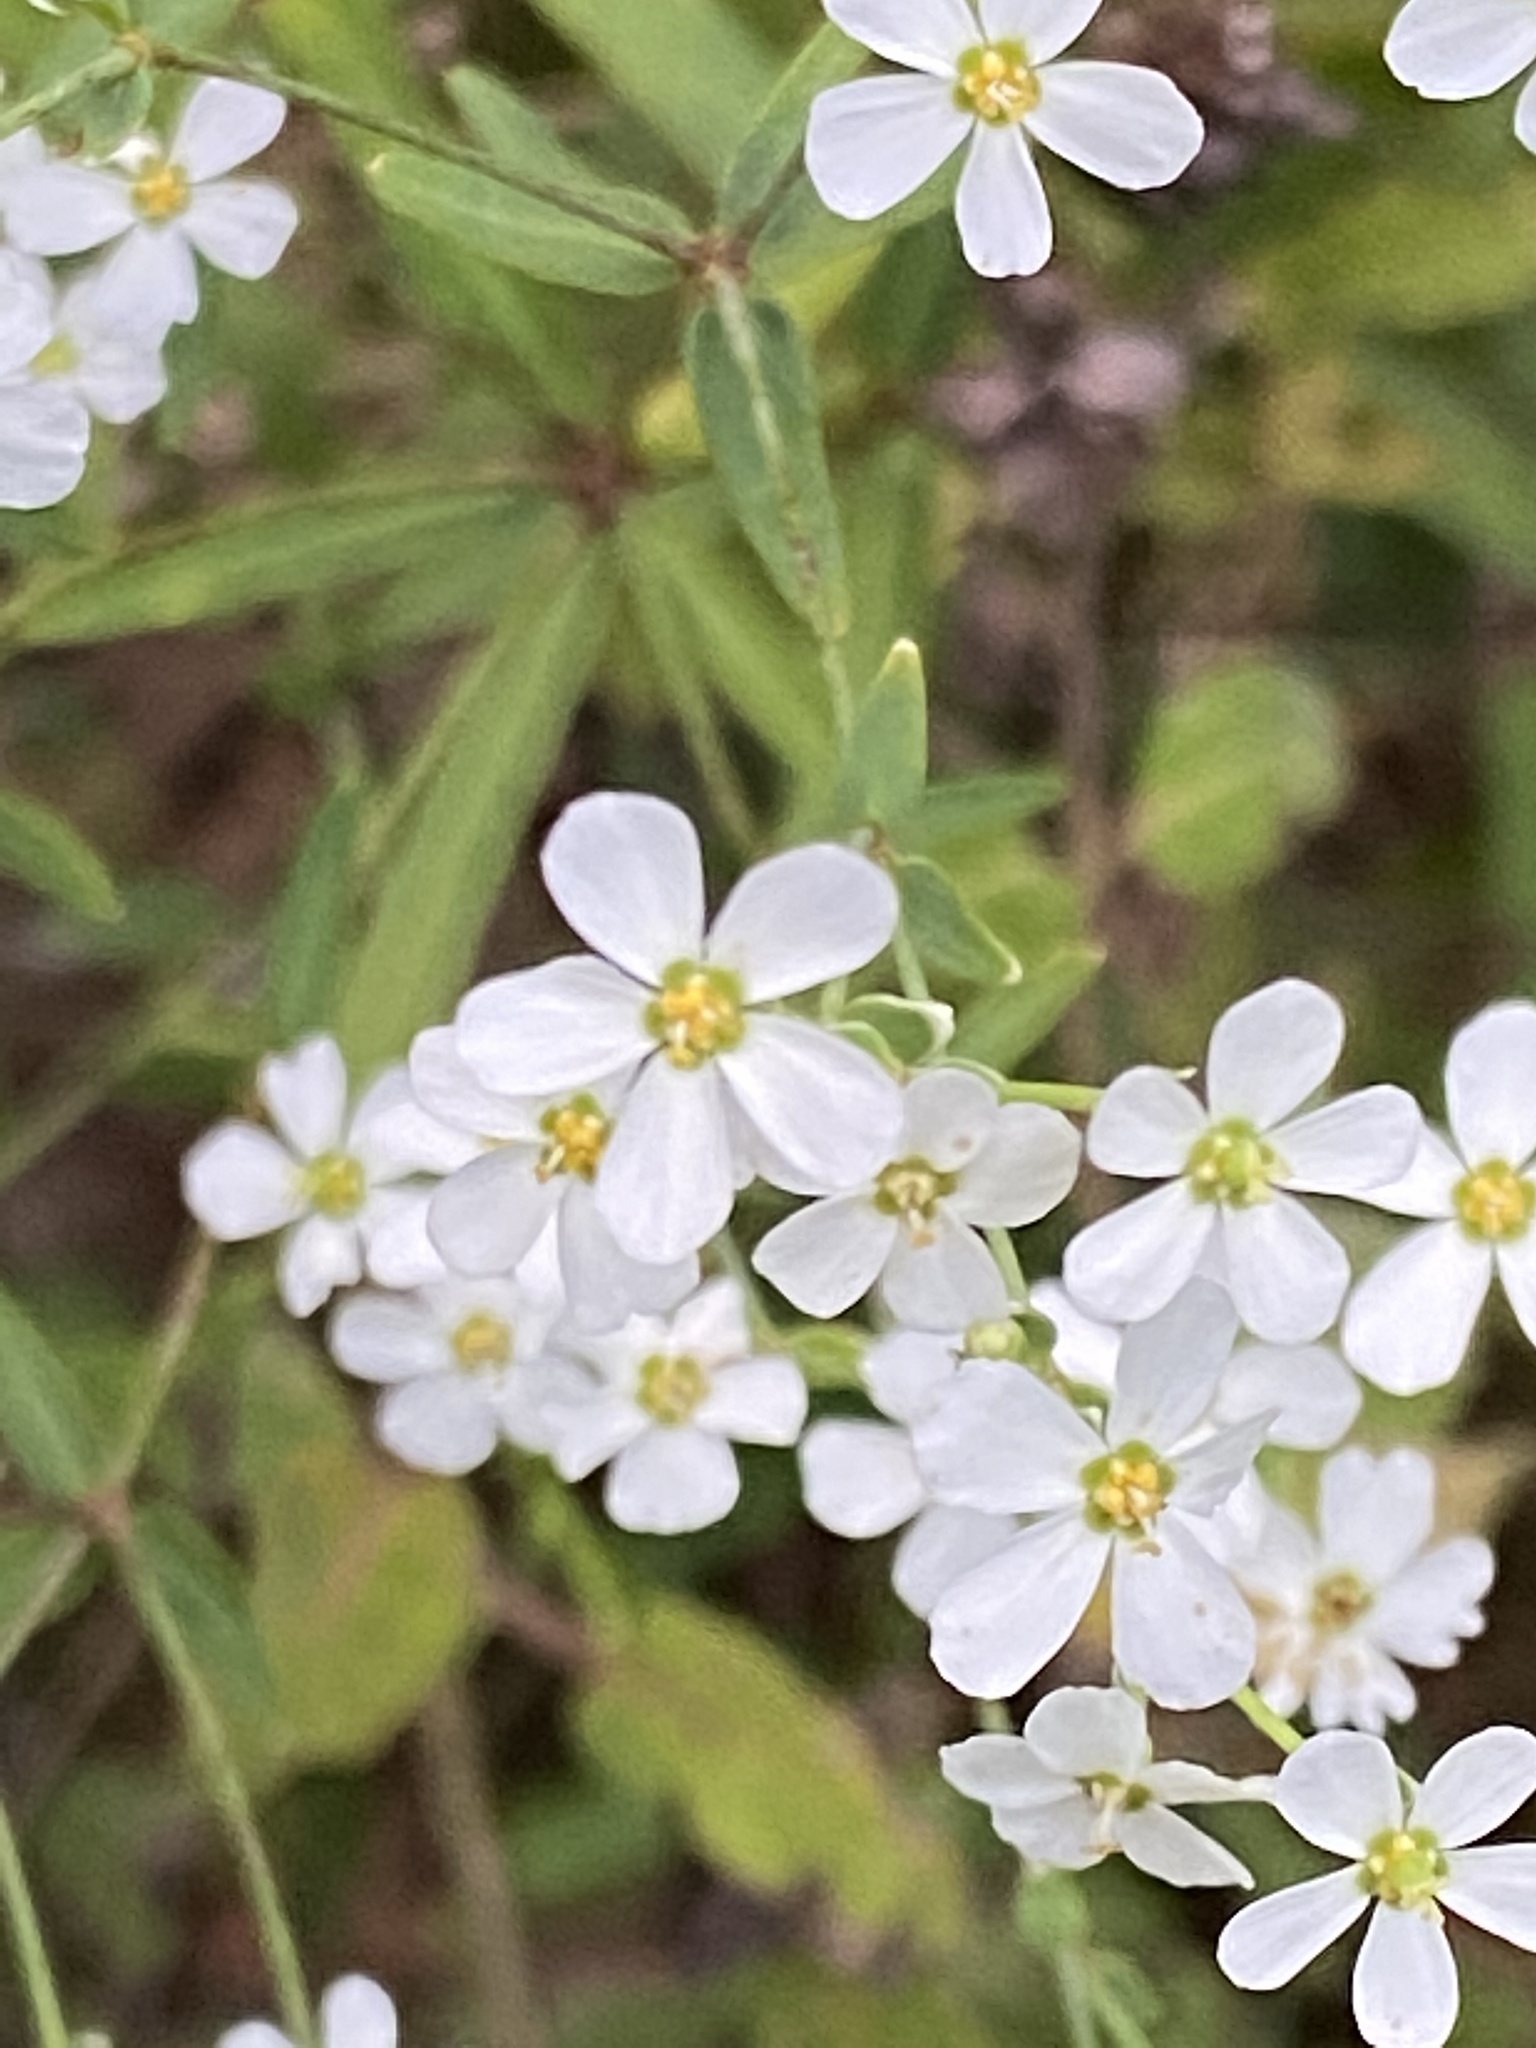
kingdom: Plantae
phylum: Tracheophyta
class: Magnoliopsida
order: Malpighiales
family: Euphorbiaceae
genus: Euphorbia
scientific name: Euphorbia corollata
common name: Flowering spurge
